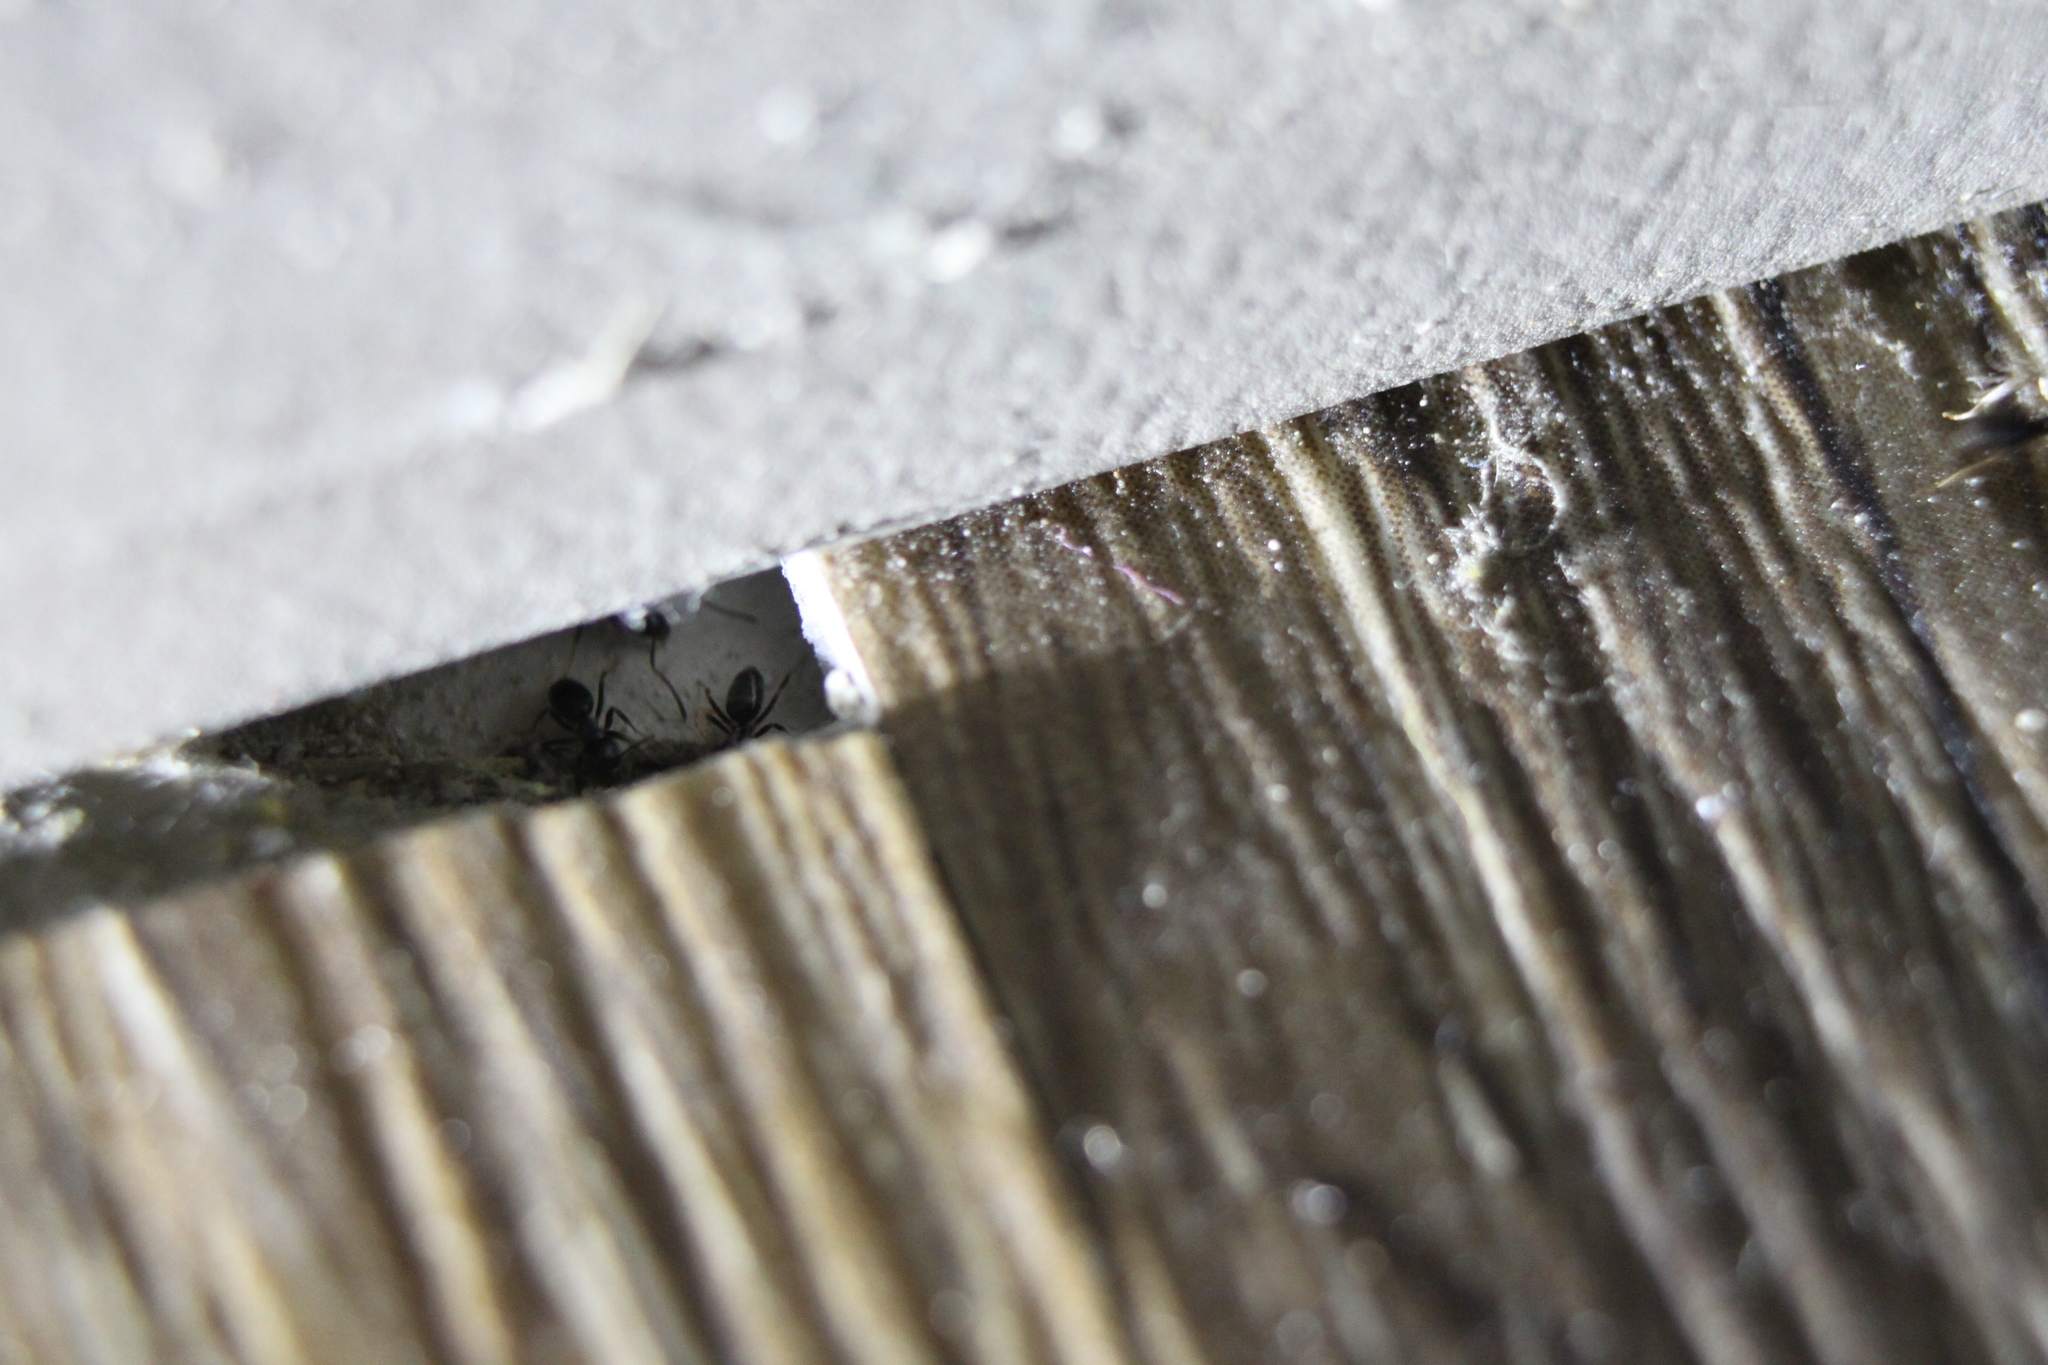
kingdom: Animalia
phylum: Arthropoda
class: Insecta
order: Hymenoptera
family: Formicidae
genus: Tapinoma
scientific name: Tapinoma sessile
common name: Odorous house ant
